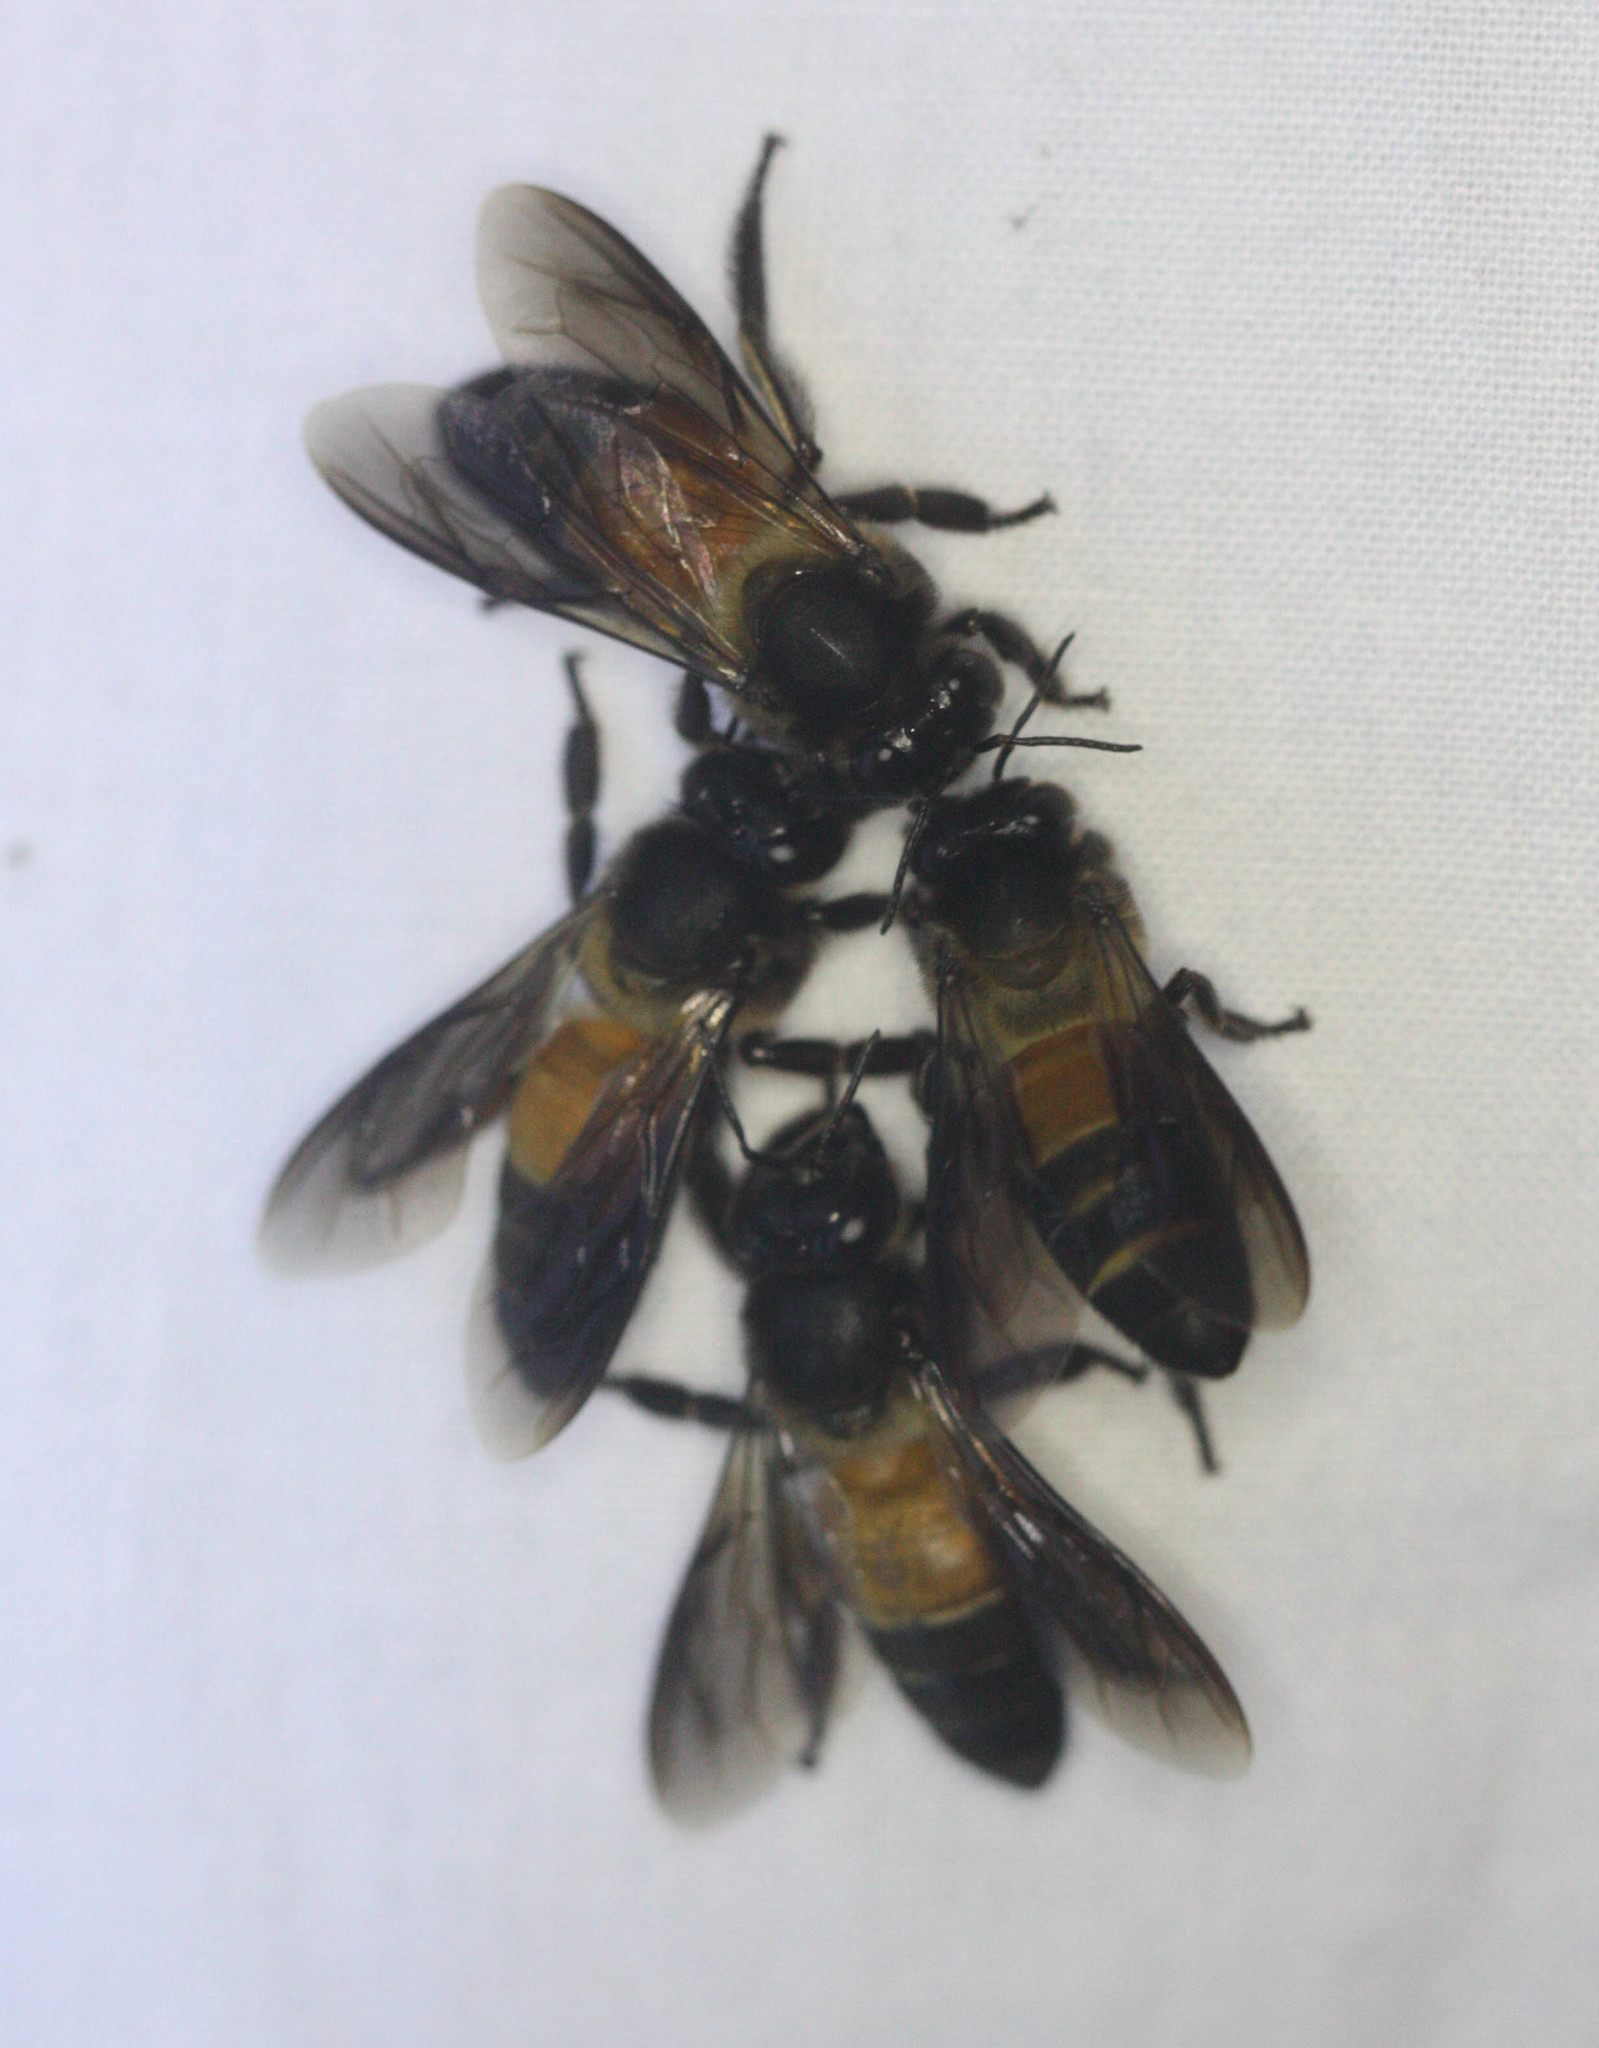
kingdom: Animalia
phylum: Arthropoda
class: Insecta
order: Hymenoptera
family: Apidae
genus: Apis
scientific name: Apis dorsata
